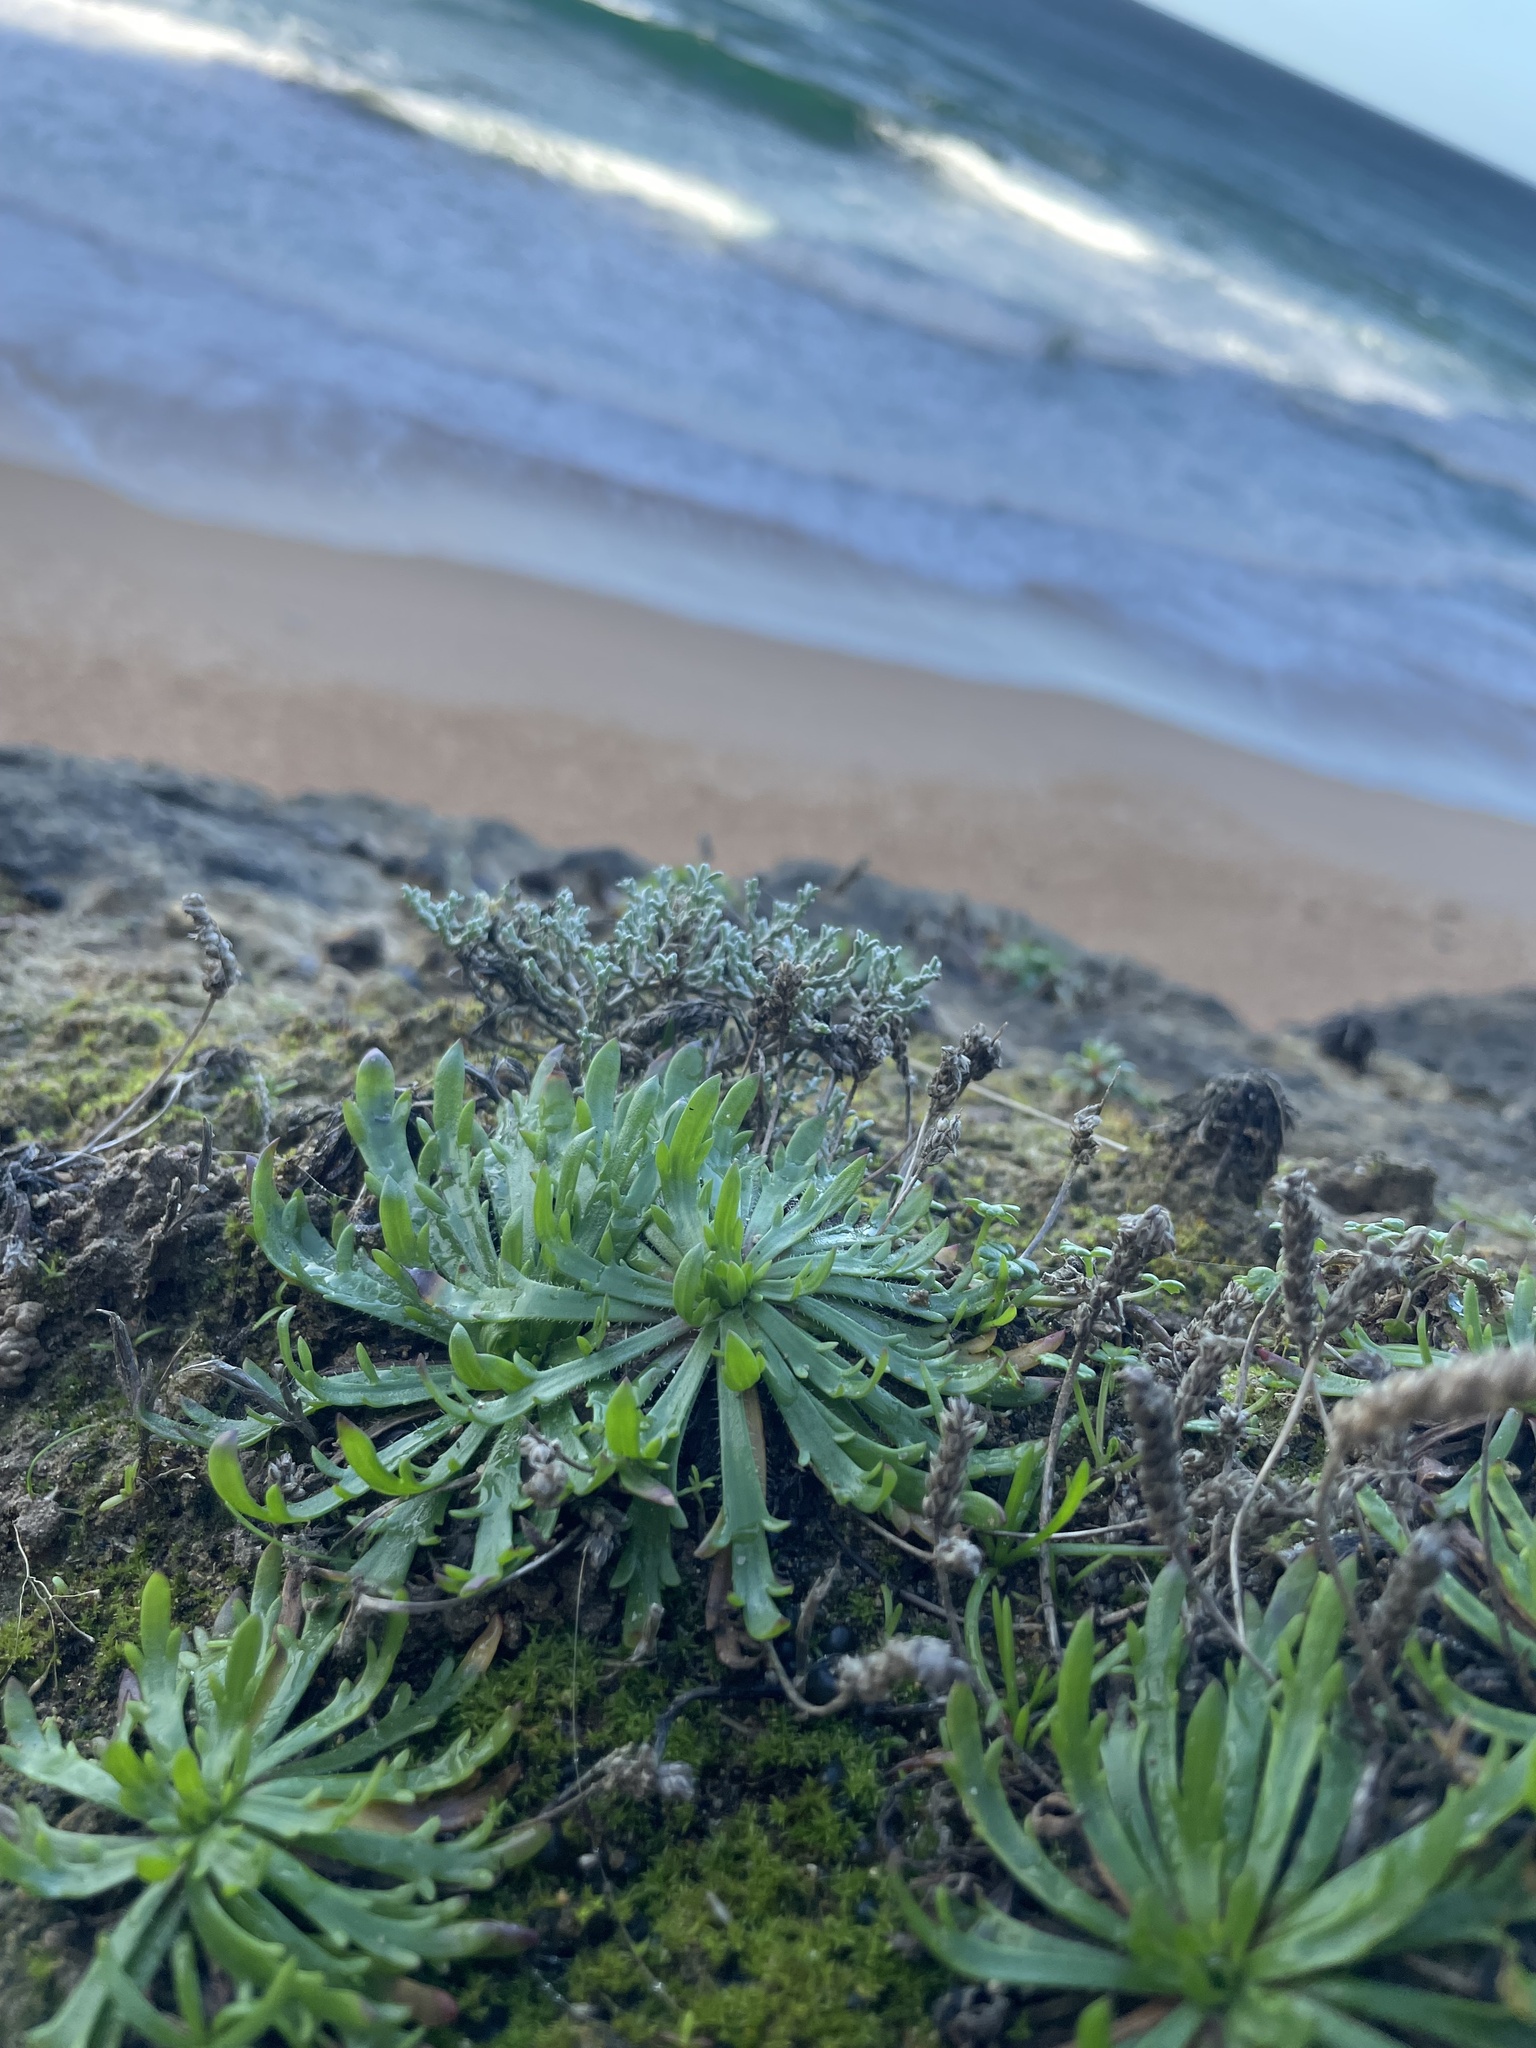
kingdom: Plantae
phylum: Tracheophyta
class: Magnoliopsida
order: Lamiales
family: Plantaginaceae
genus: Plantago
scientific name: Plantago coronopus
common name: Buck's-horn plantain
